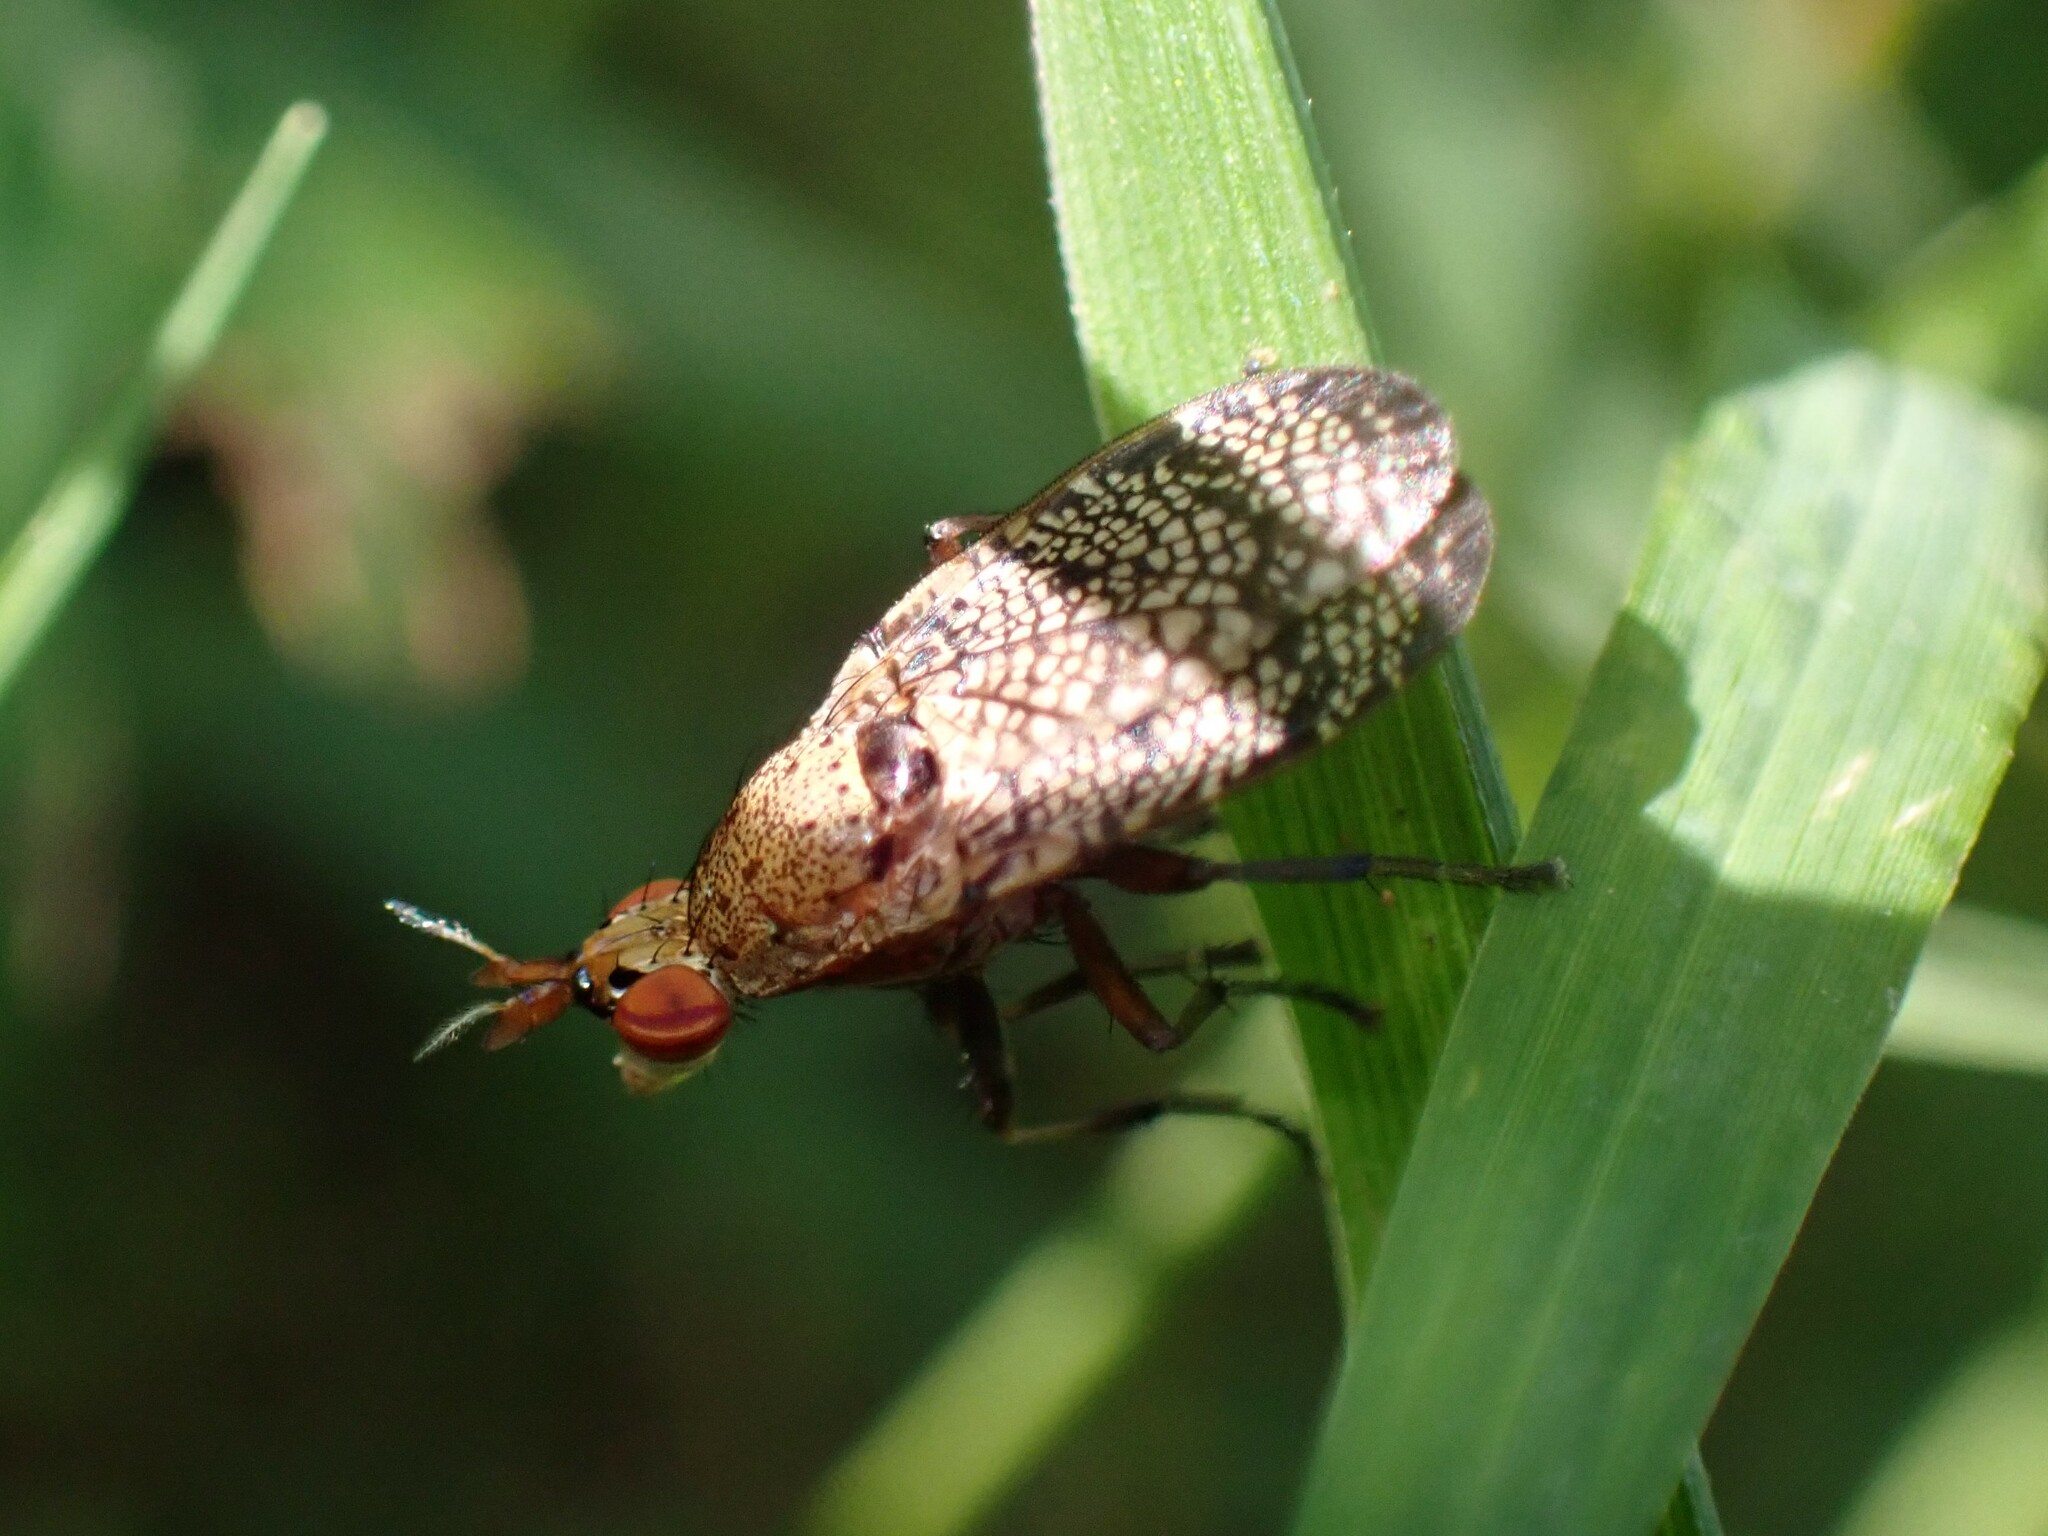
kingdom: Animalia
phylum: Arthropoda
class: Insecta
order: Diptera
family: Sciomyzidae
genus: Euthycera
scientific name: Euthycera flavescens
